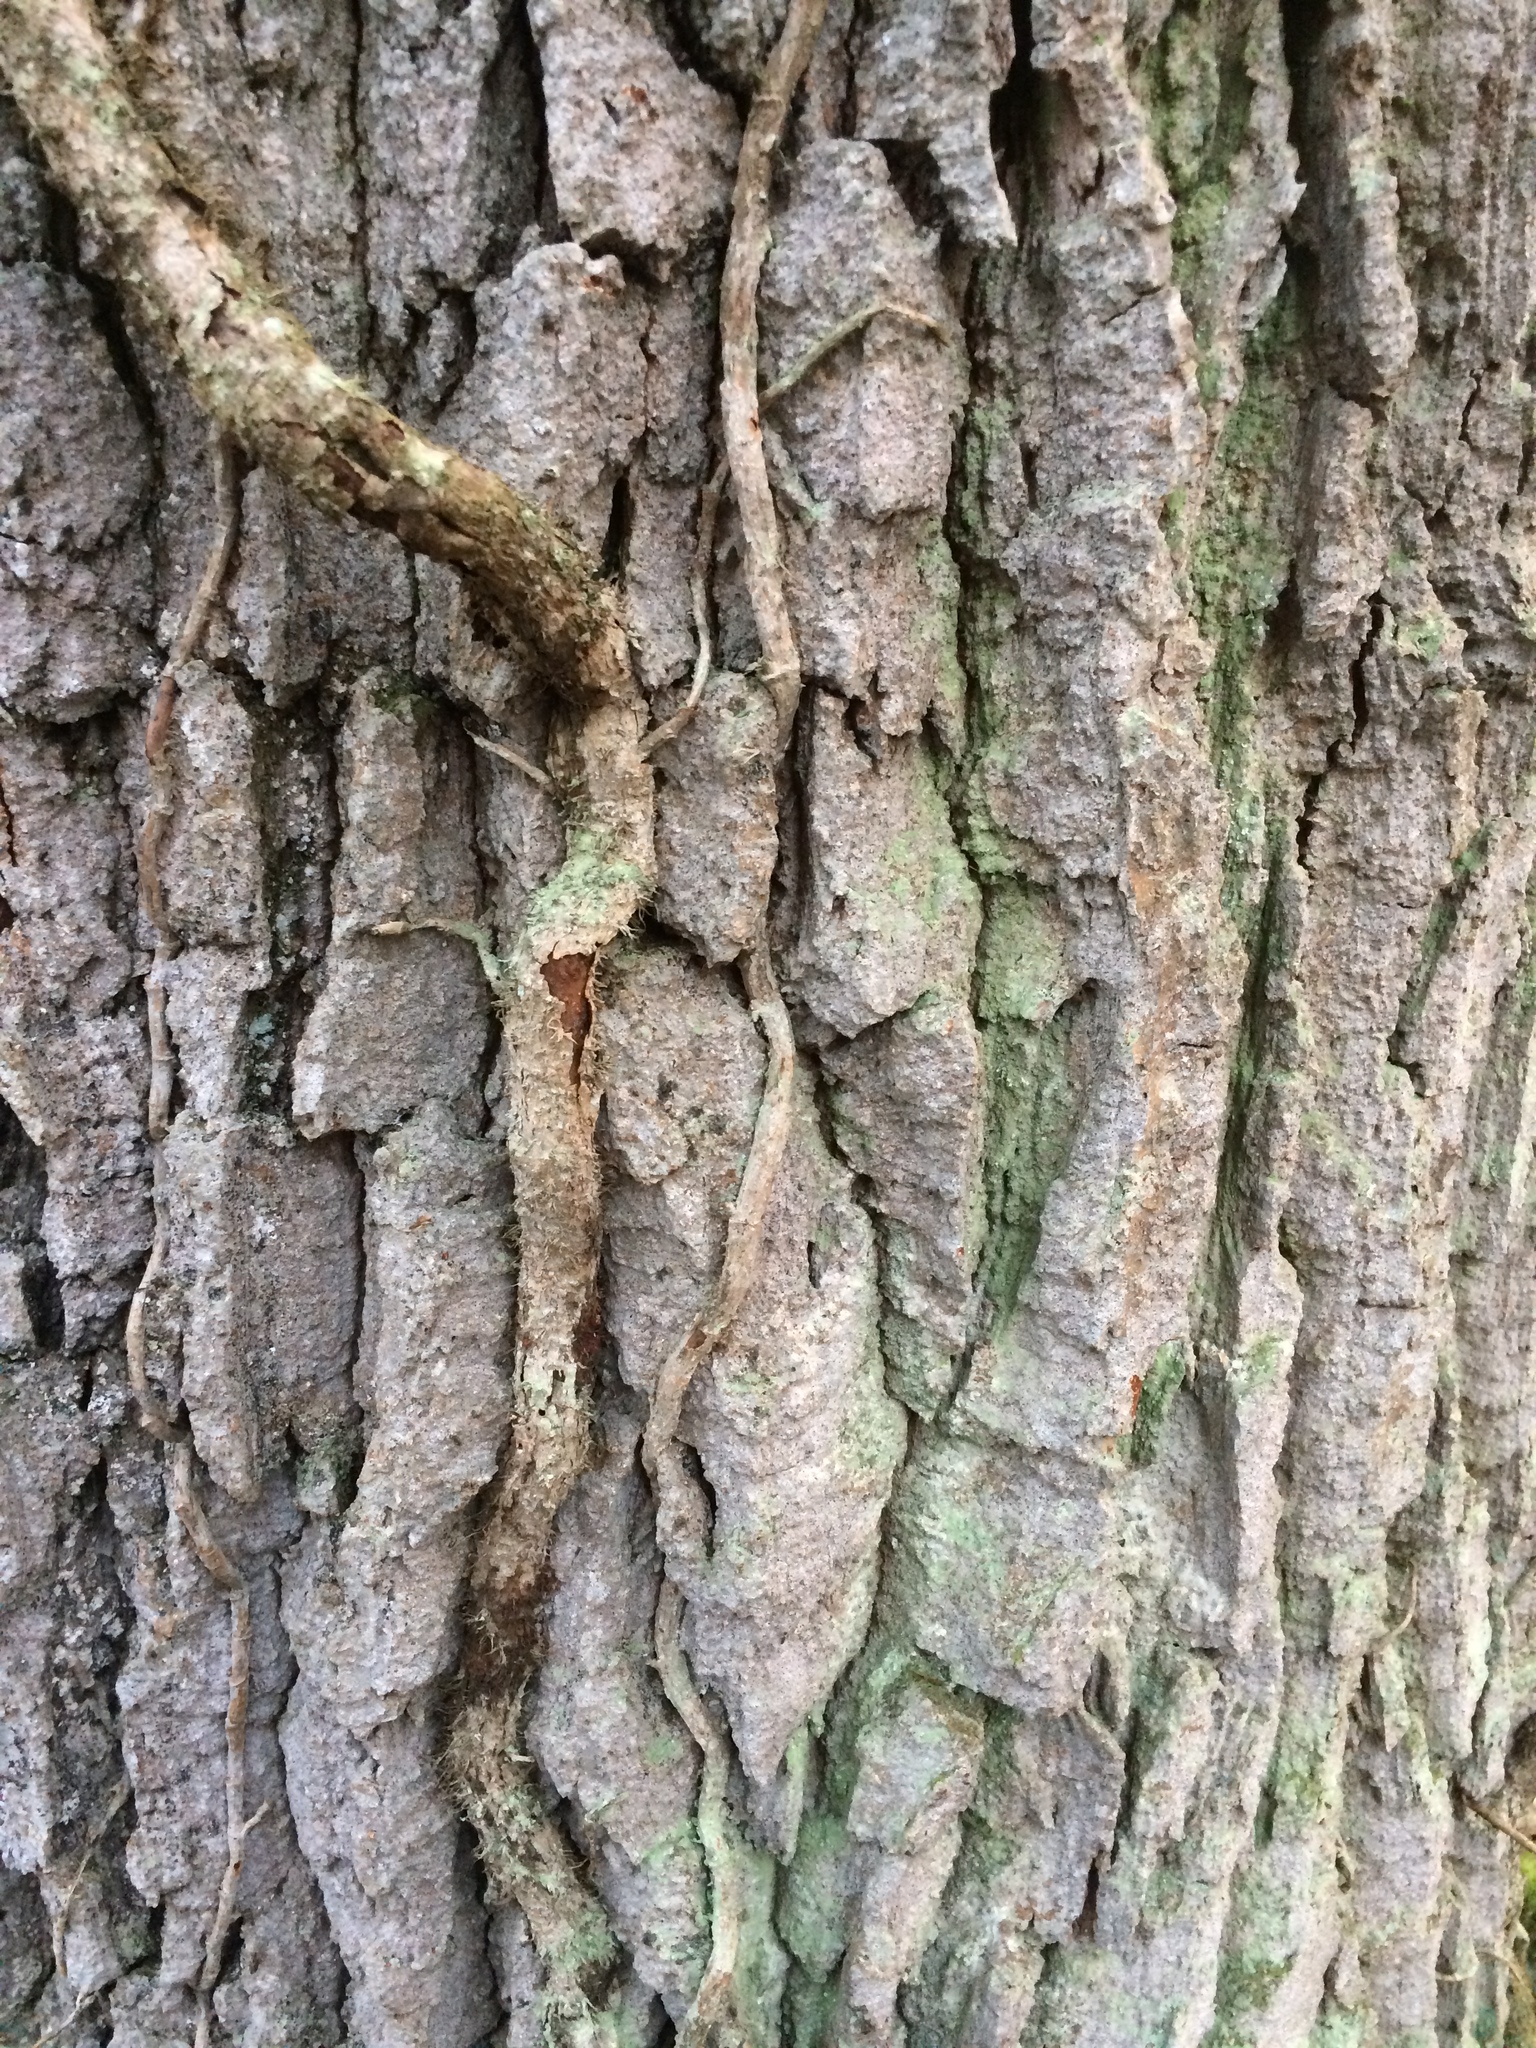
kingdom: Fungi
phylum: Ascomycota
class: Arthoniomycetes
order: Arthoniales
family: Arthoniaceae
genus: Inoderma
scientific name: Inoderma byssaceum
